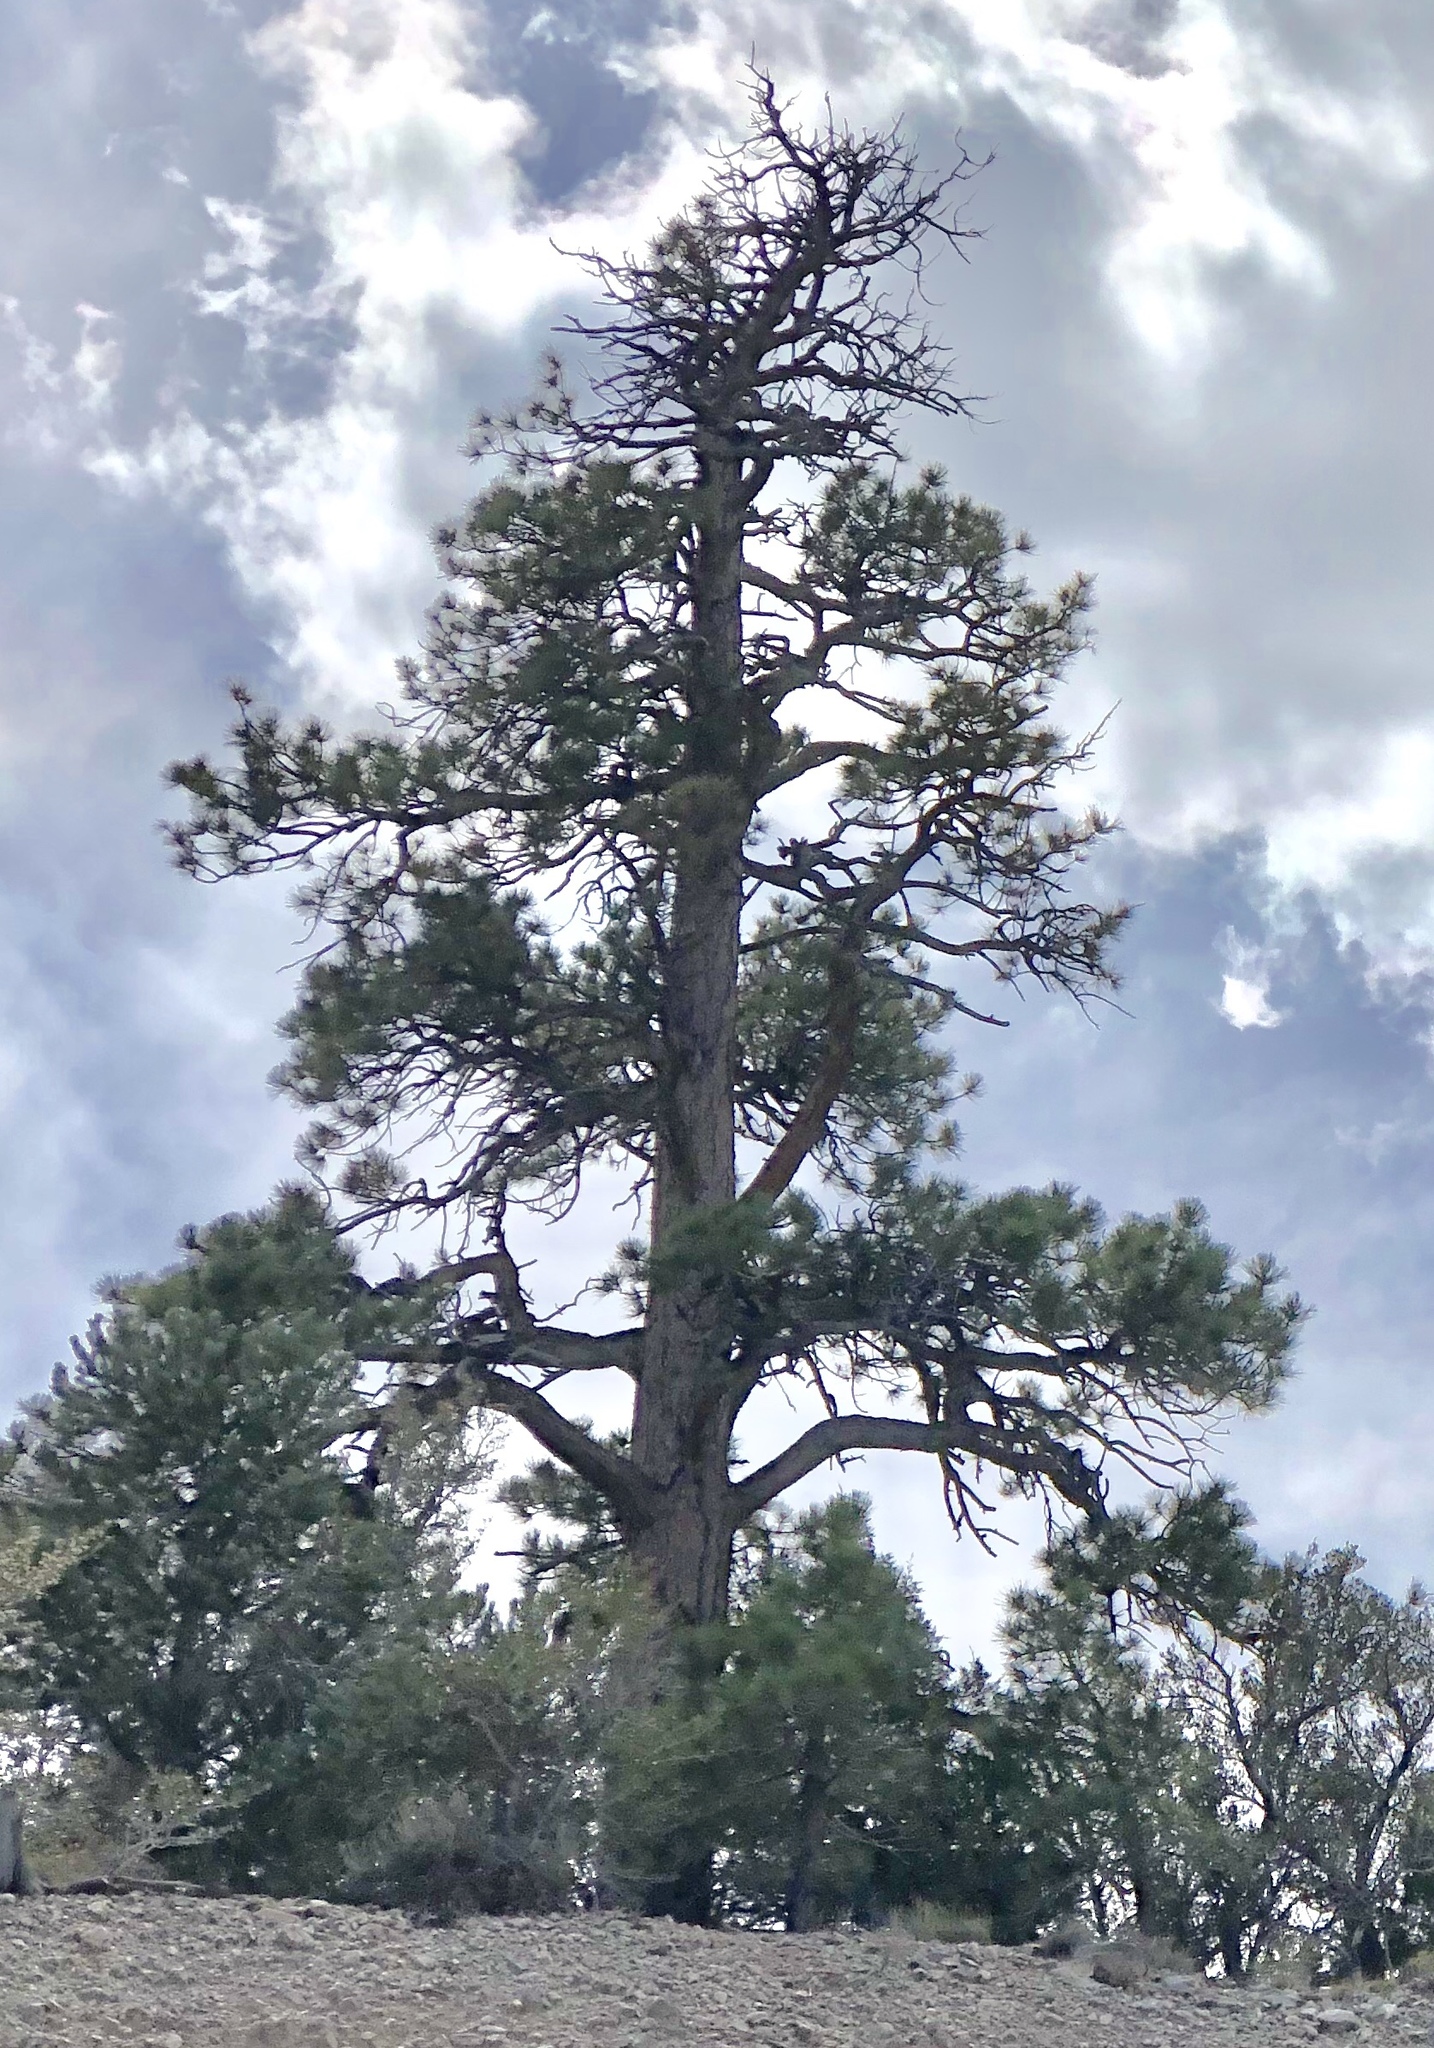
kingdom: Plantae
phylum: Tracheophyta
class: Pinopsida
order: Pinales
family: Pinaceae
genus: Pinus
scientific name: Pinus ponderosa
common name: Western yellow-pine
